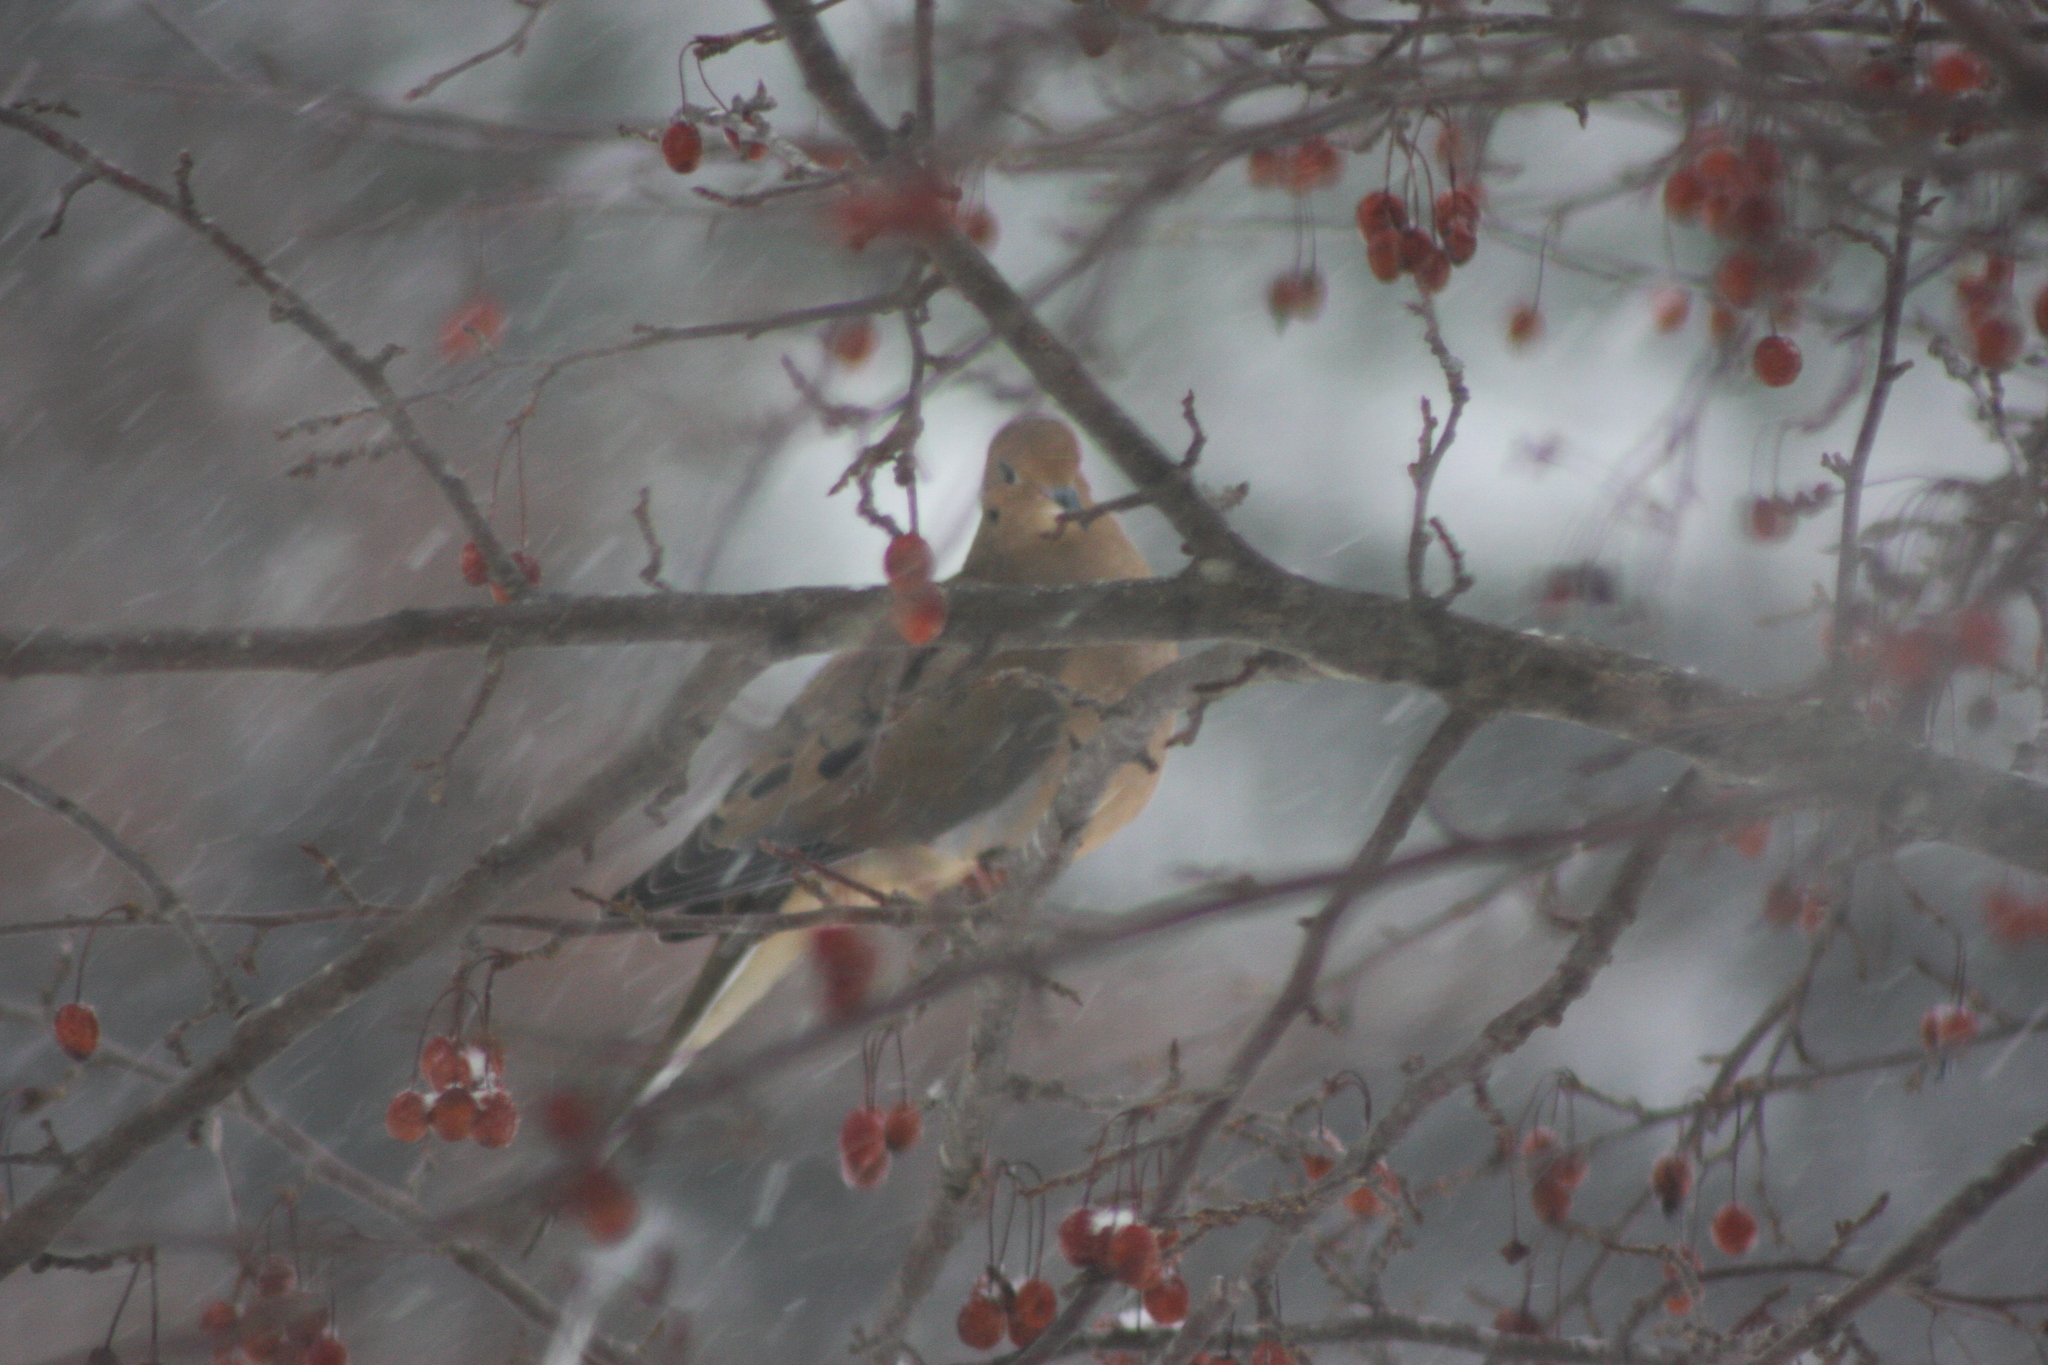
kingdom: Animalia
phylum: Chordata
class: Aves
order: Columbiformes
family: Columbidae
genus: Zenaida
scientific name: Zenaida macroura
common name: Mourning dove
